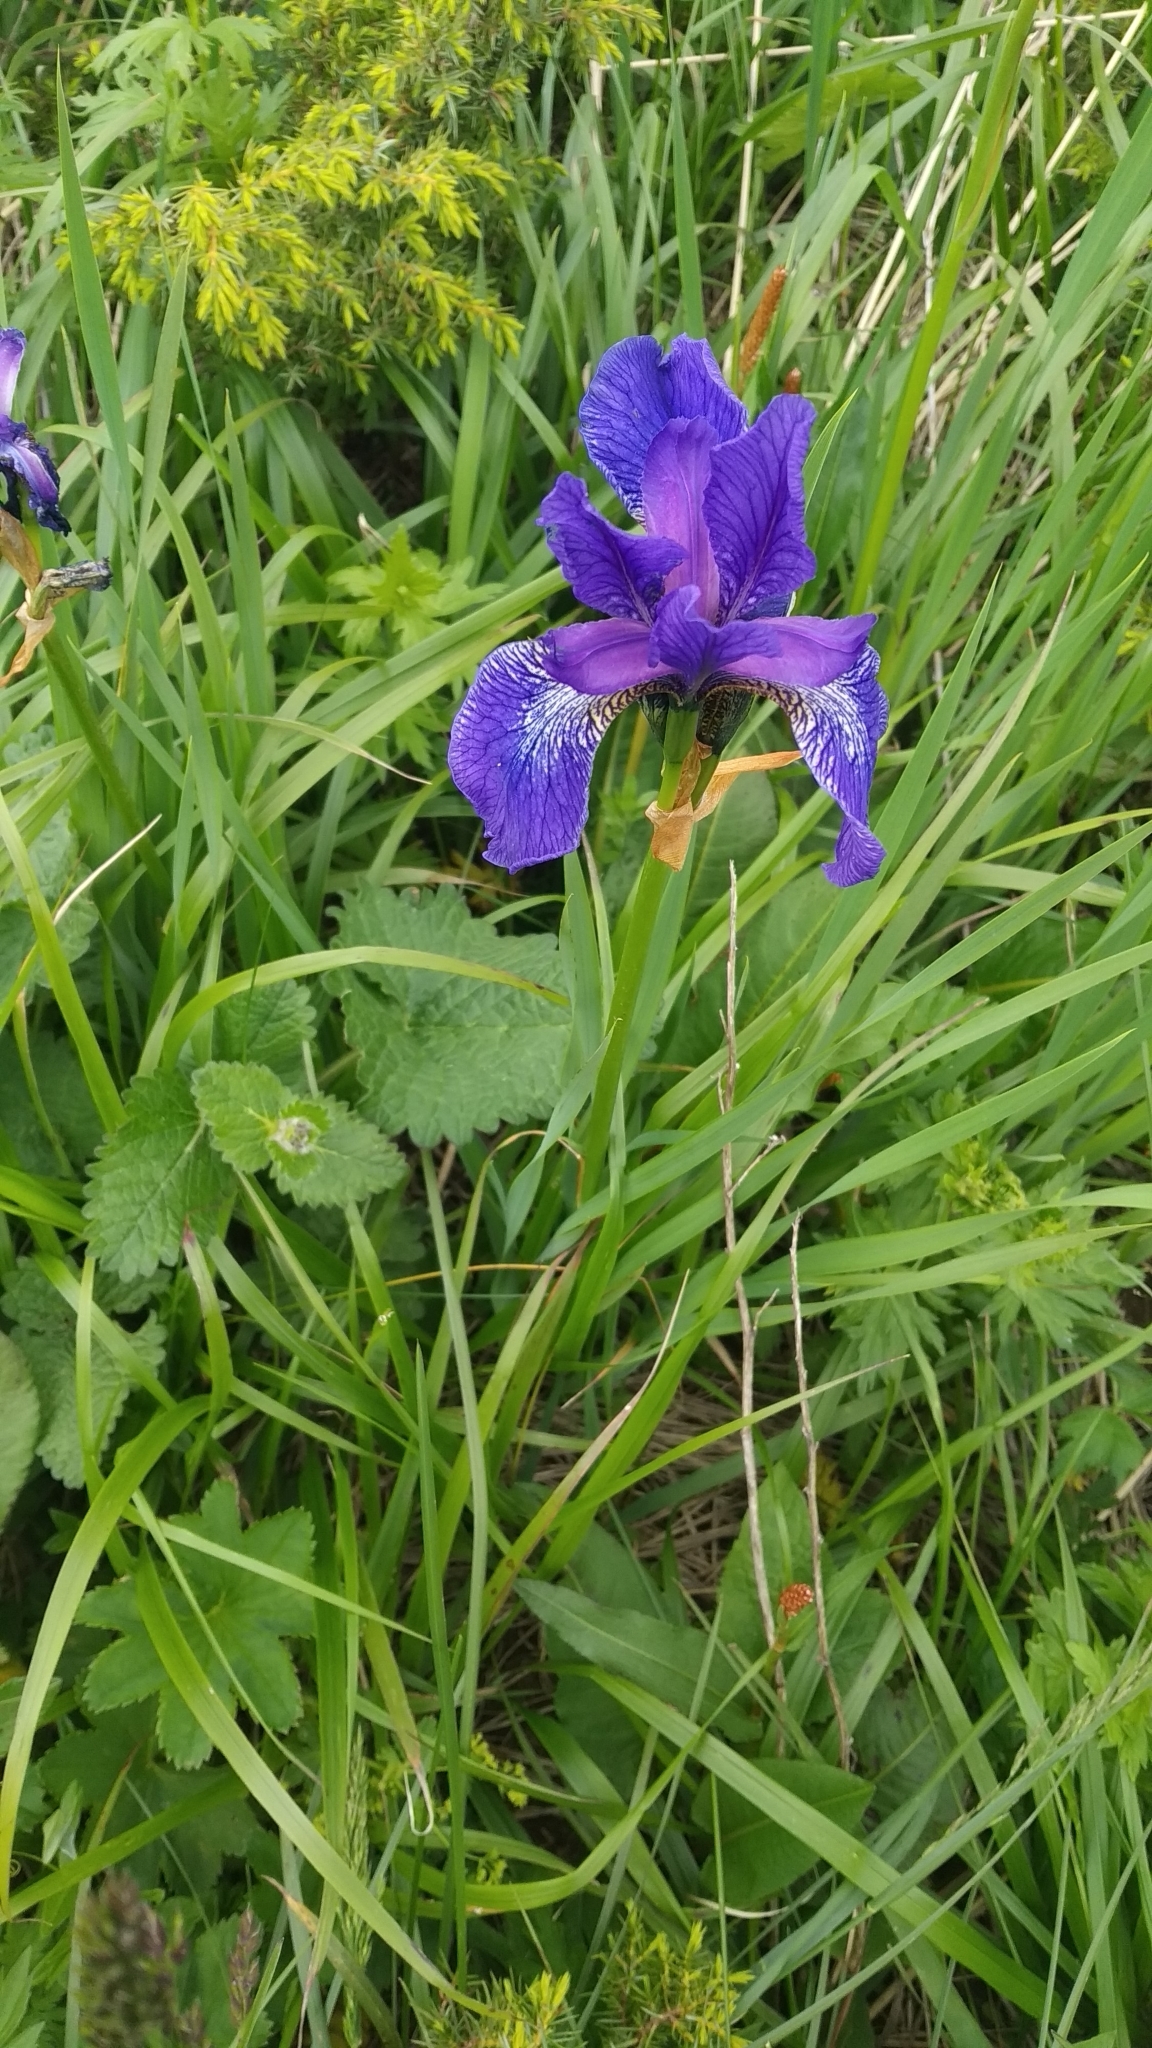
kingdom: Plantae
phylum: Tracheophyta
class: Liliopsida
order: Asparagales
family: Iridaceae
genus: Iris
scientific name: Iris sibirica
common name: Siberian iris
